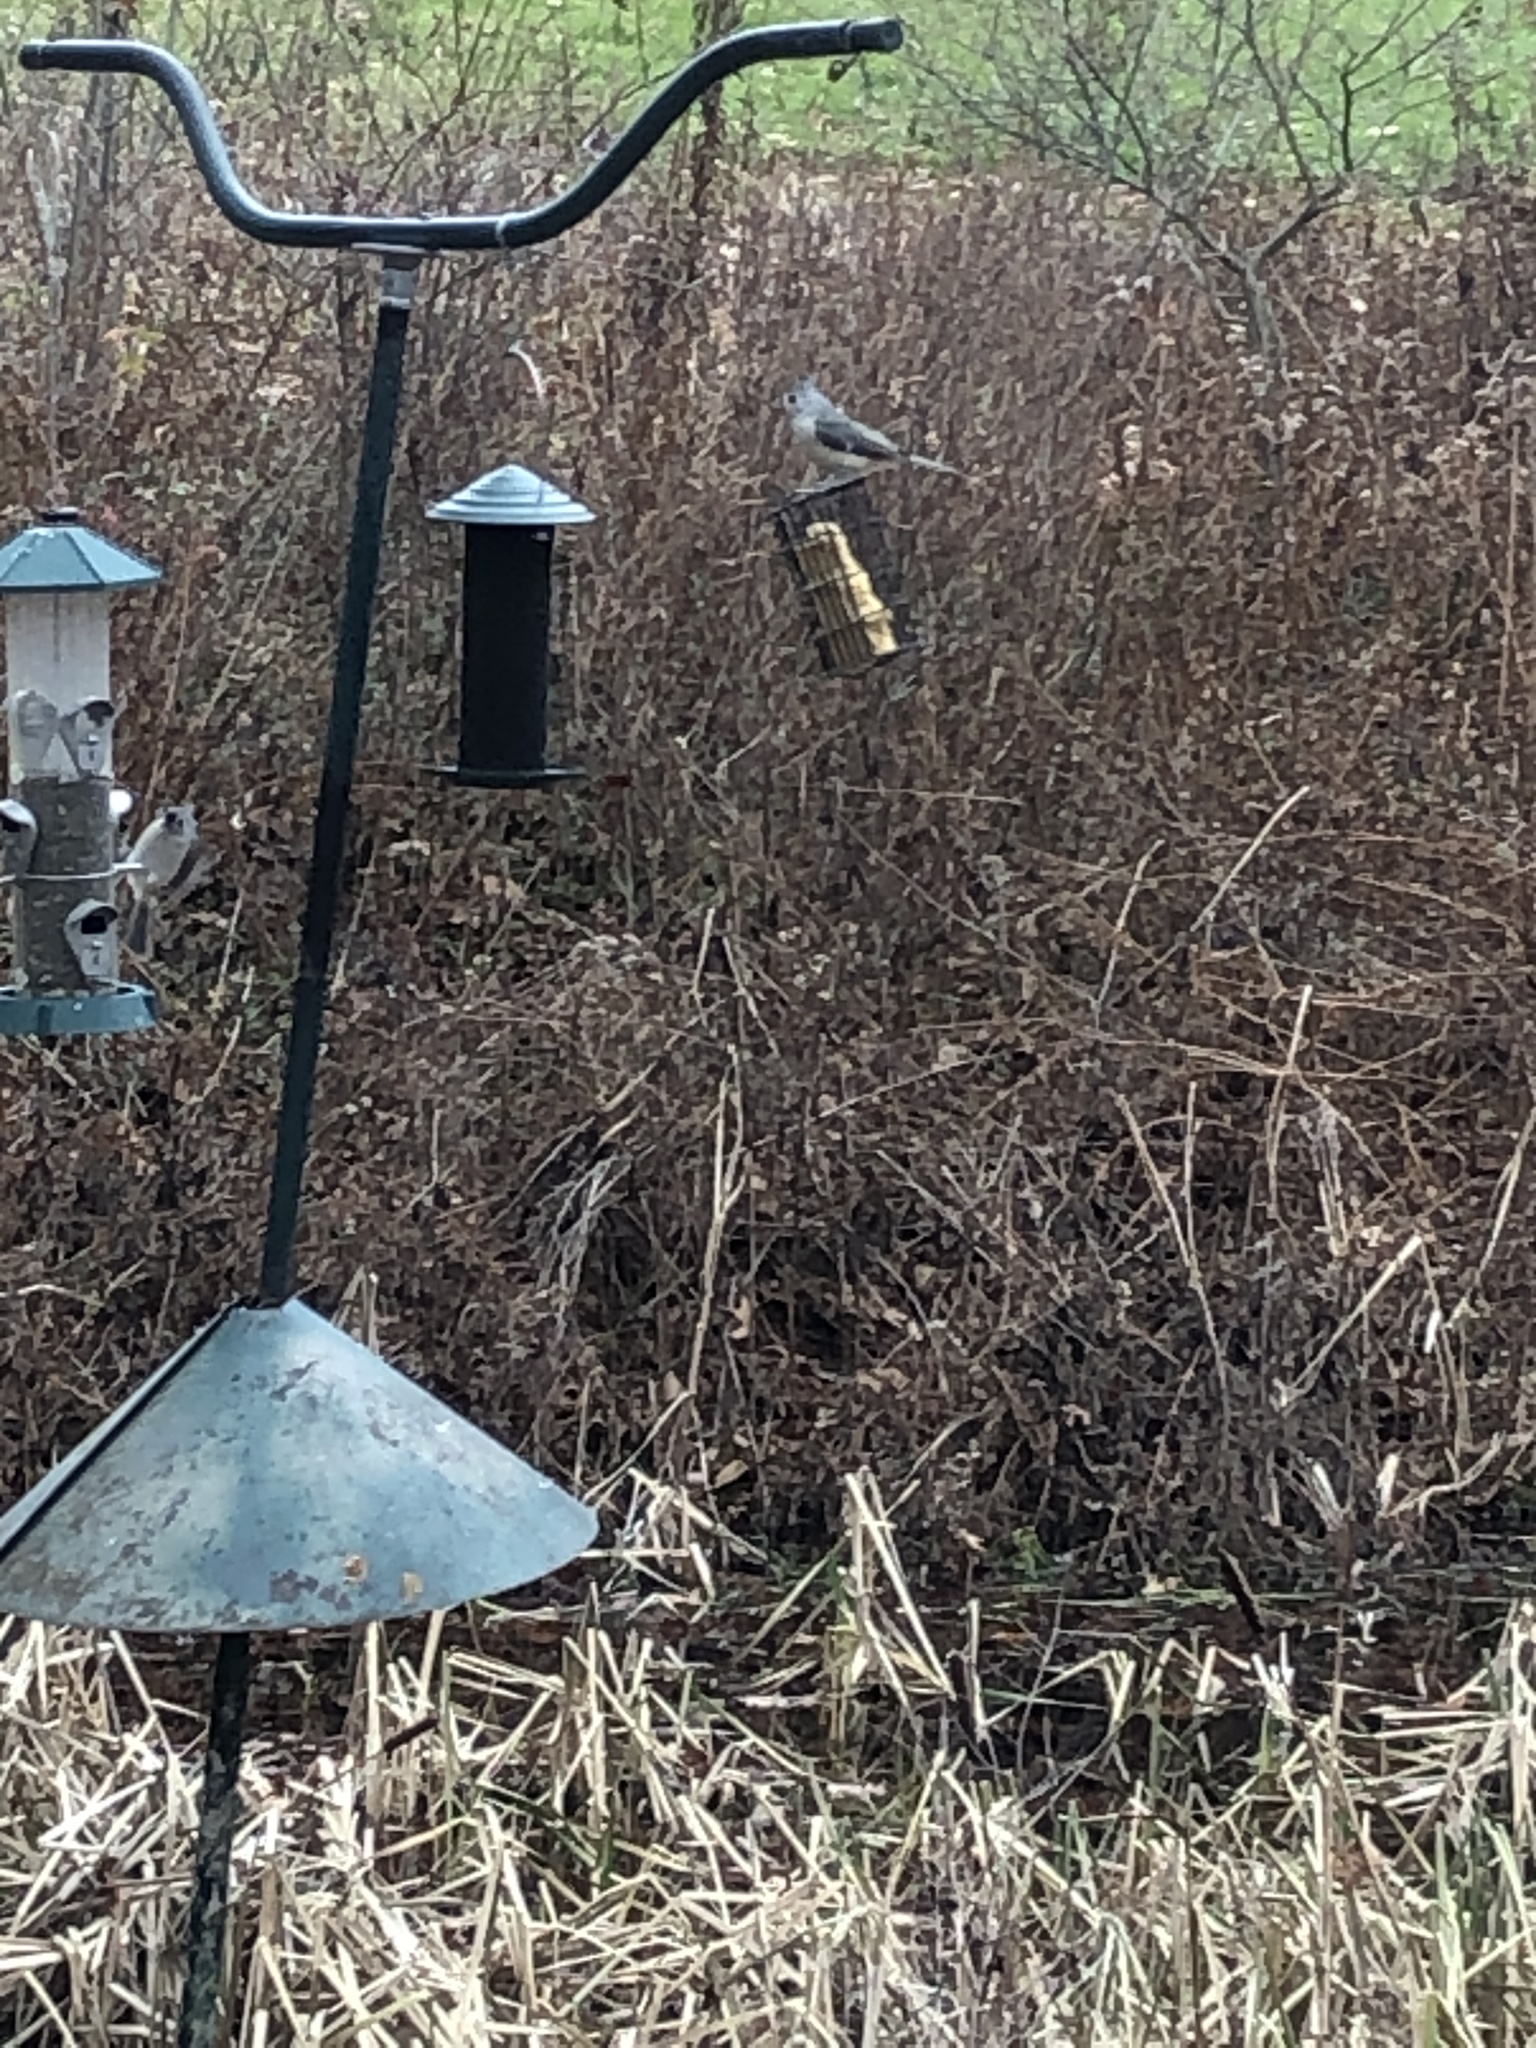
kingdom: Animalia
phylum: Chordata
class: Aves
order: Passeriformes
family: Paridae
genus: Baeolophus
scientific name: Baeolophus bicolor
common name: Tufted titmouse
